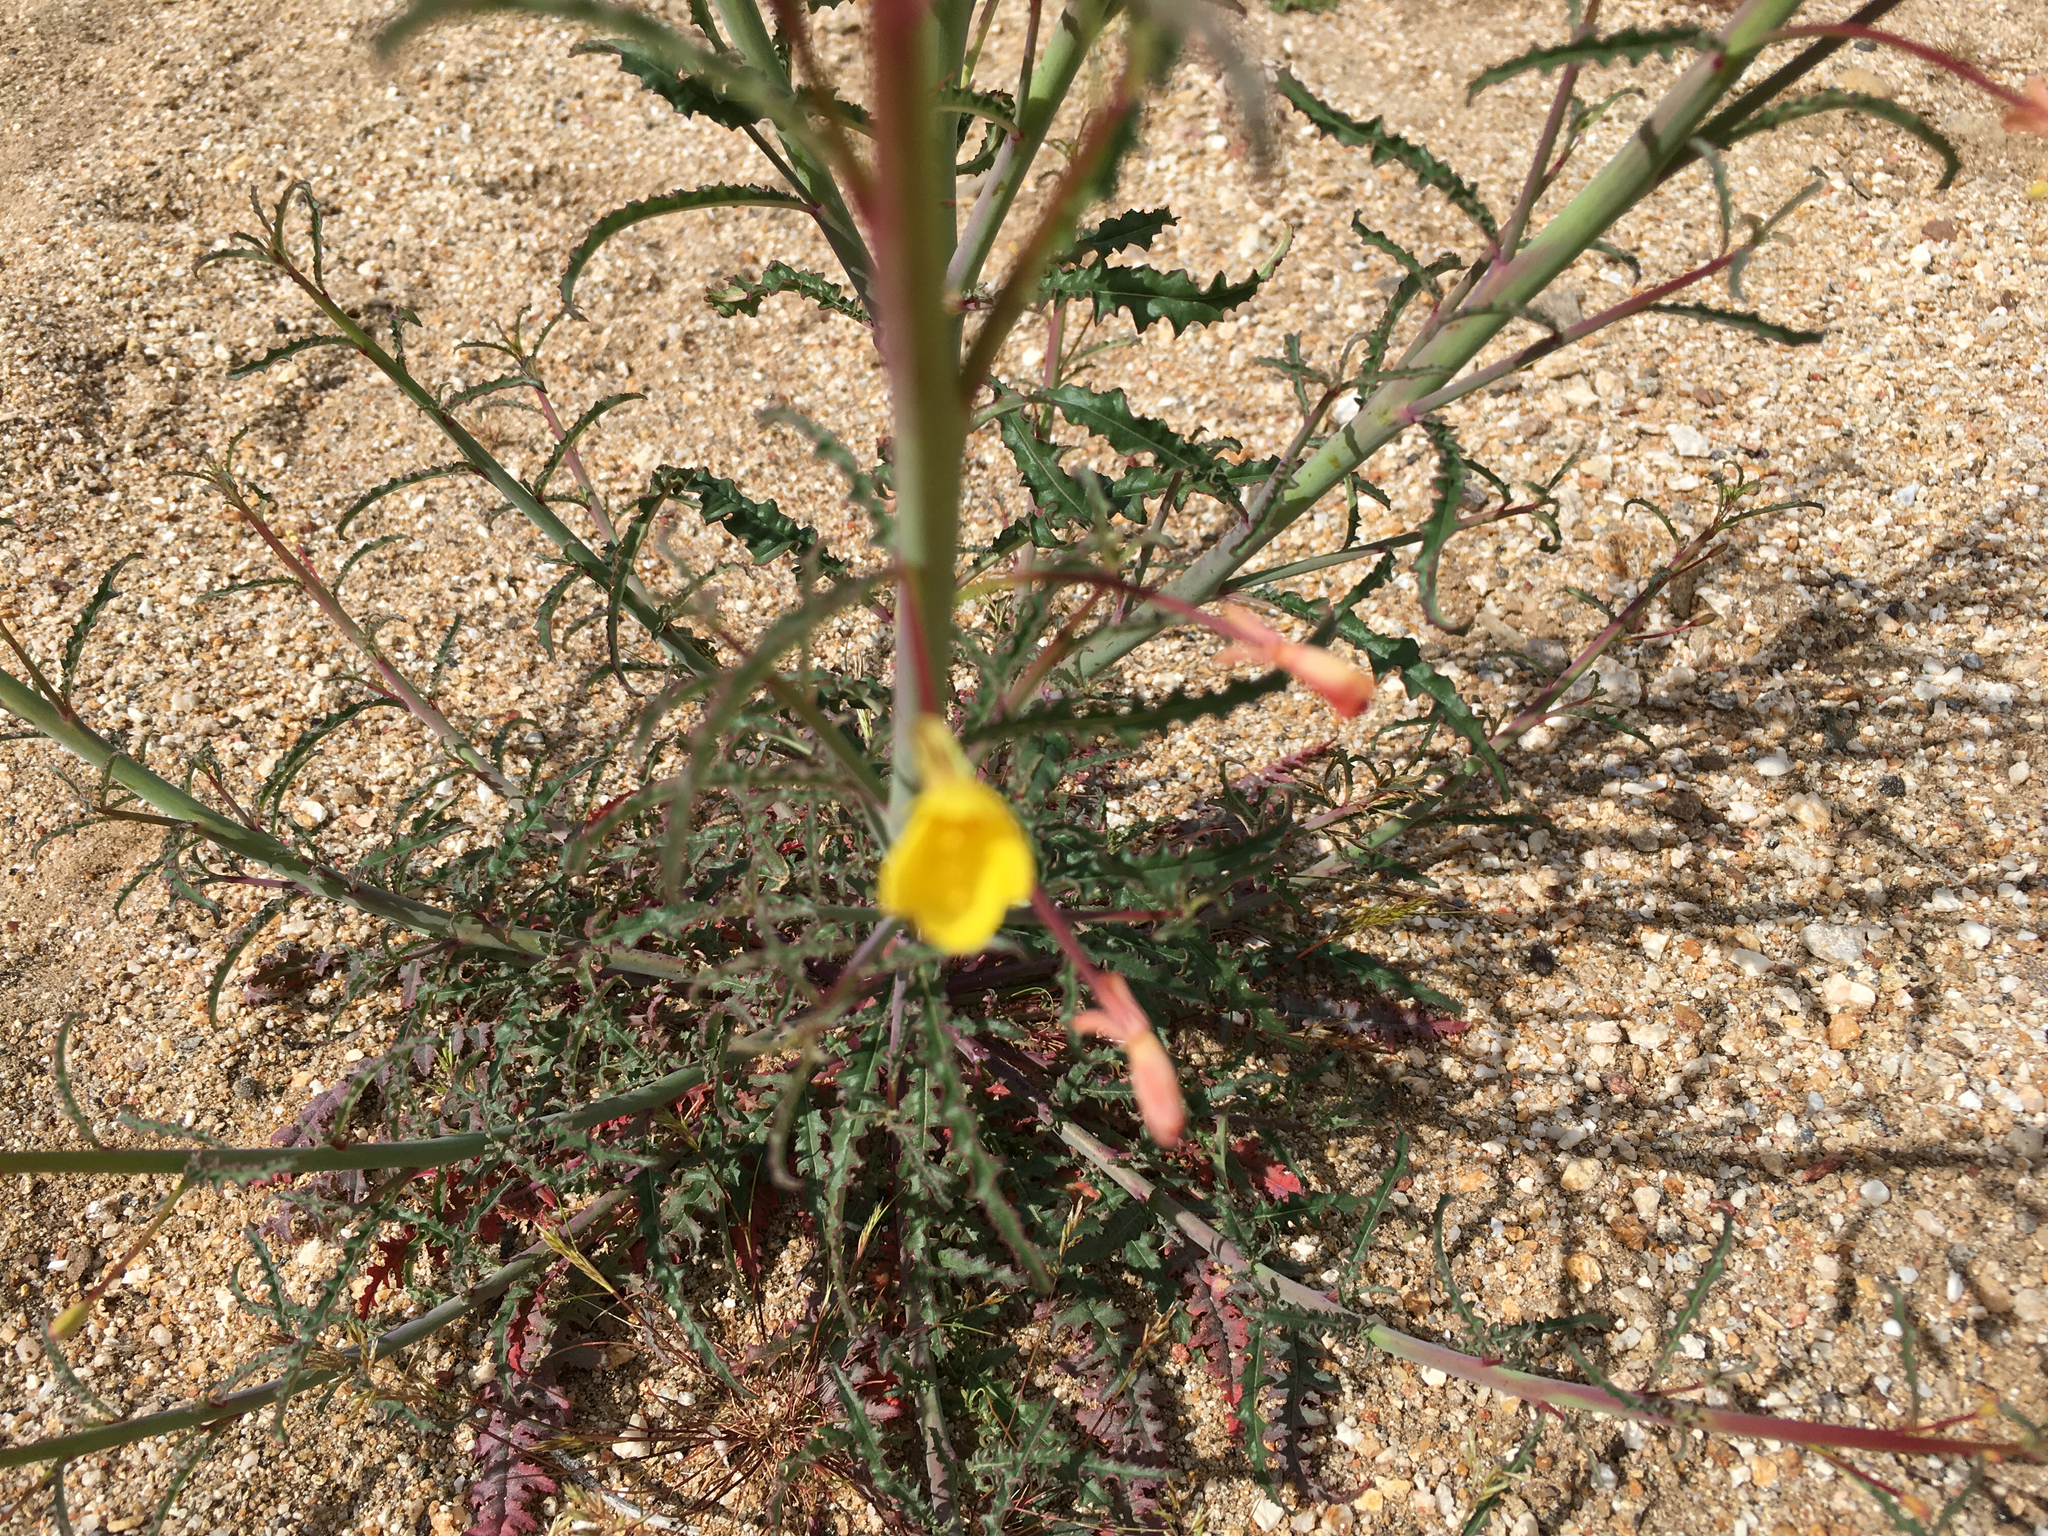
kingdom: Plantae
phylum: Tracheophyta
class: Magnoliopsida
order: Myrtales
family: Onagraceae
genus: Eulobus
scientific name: Eulobus californicus
